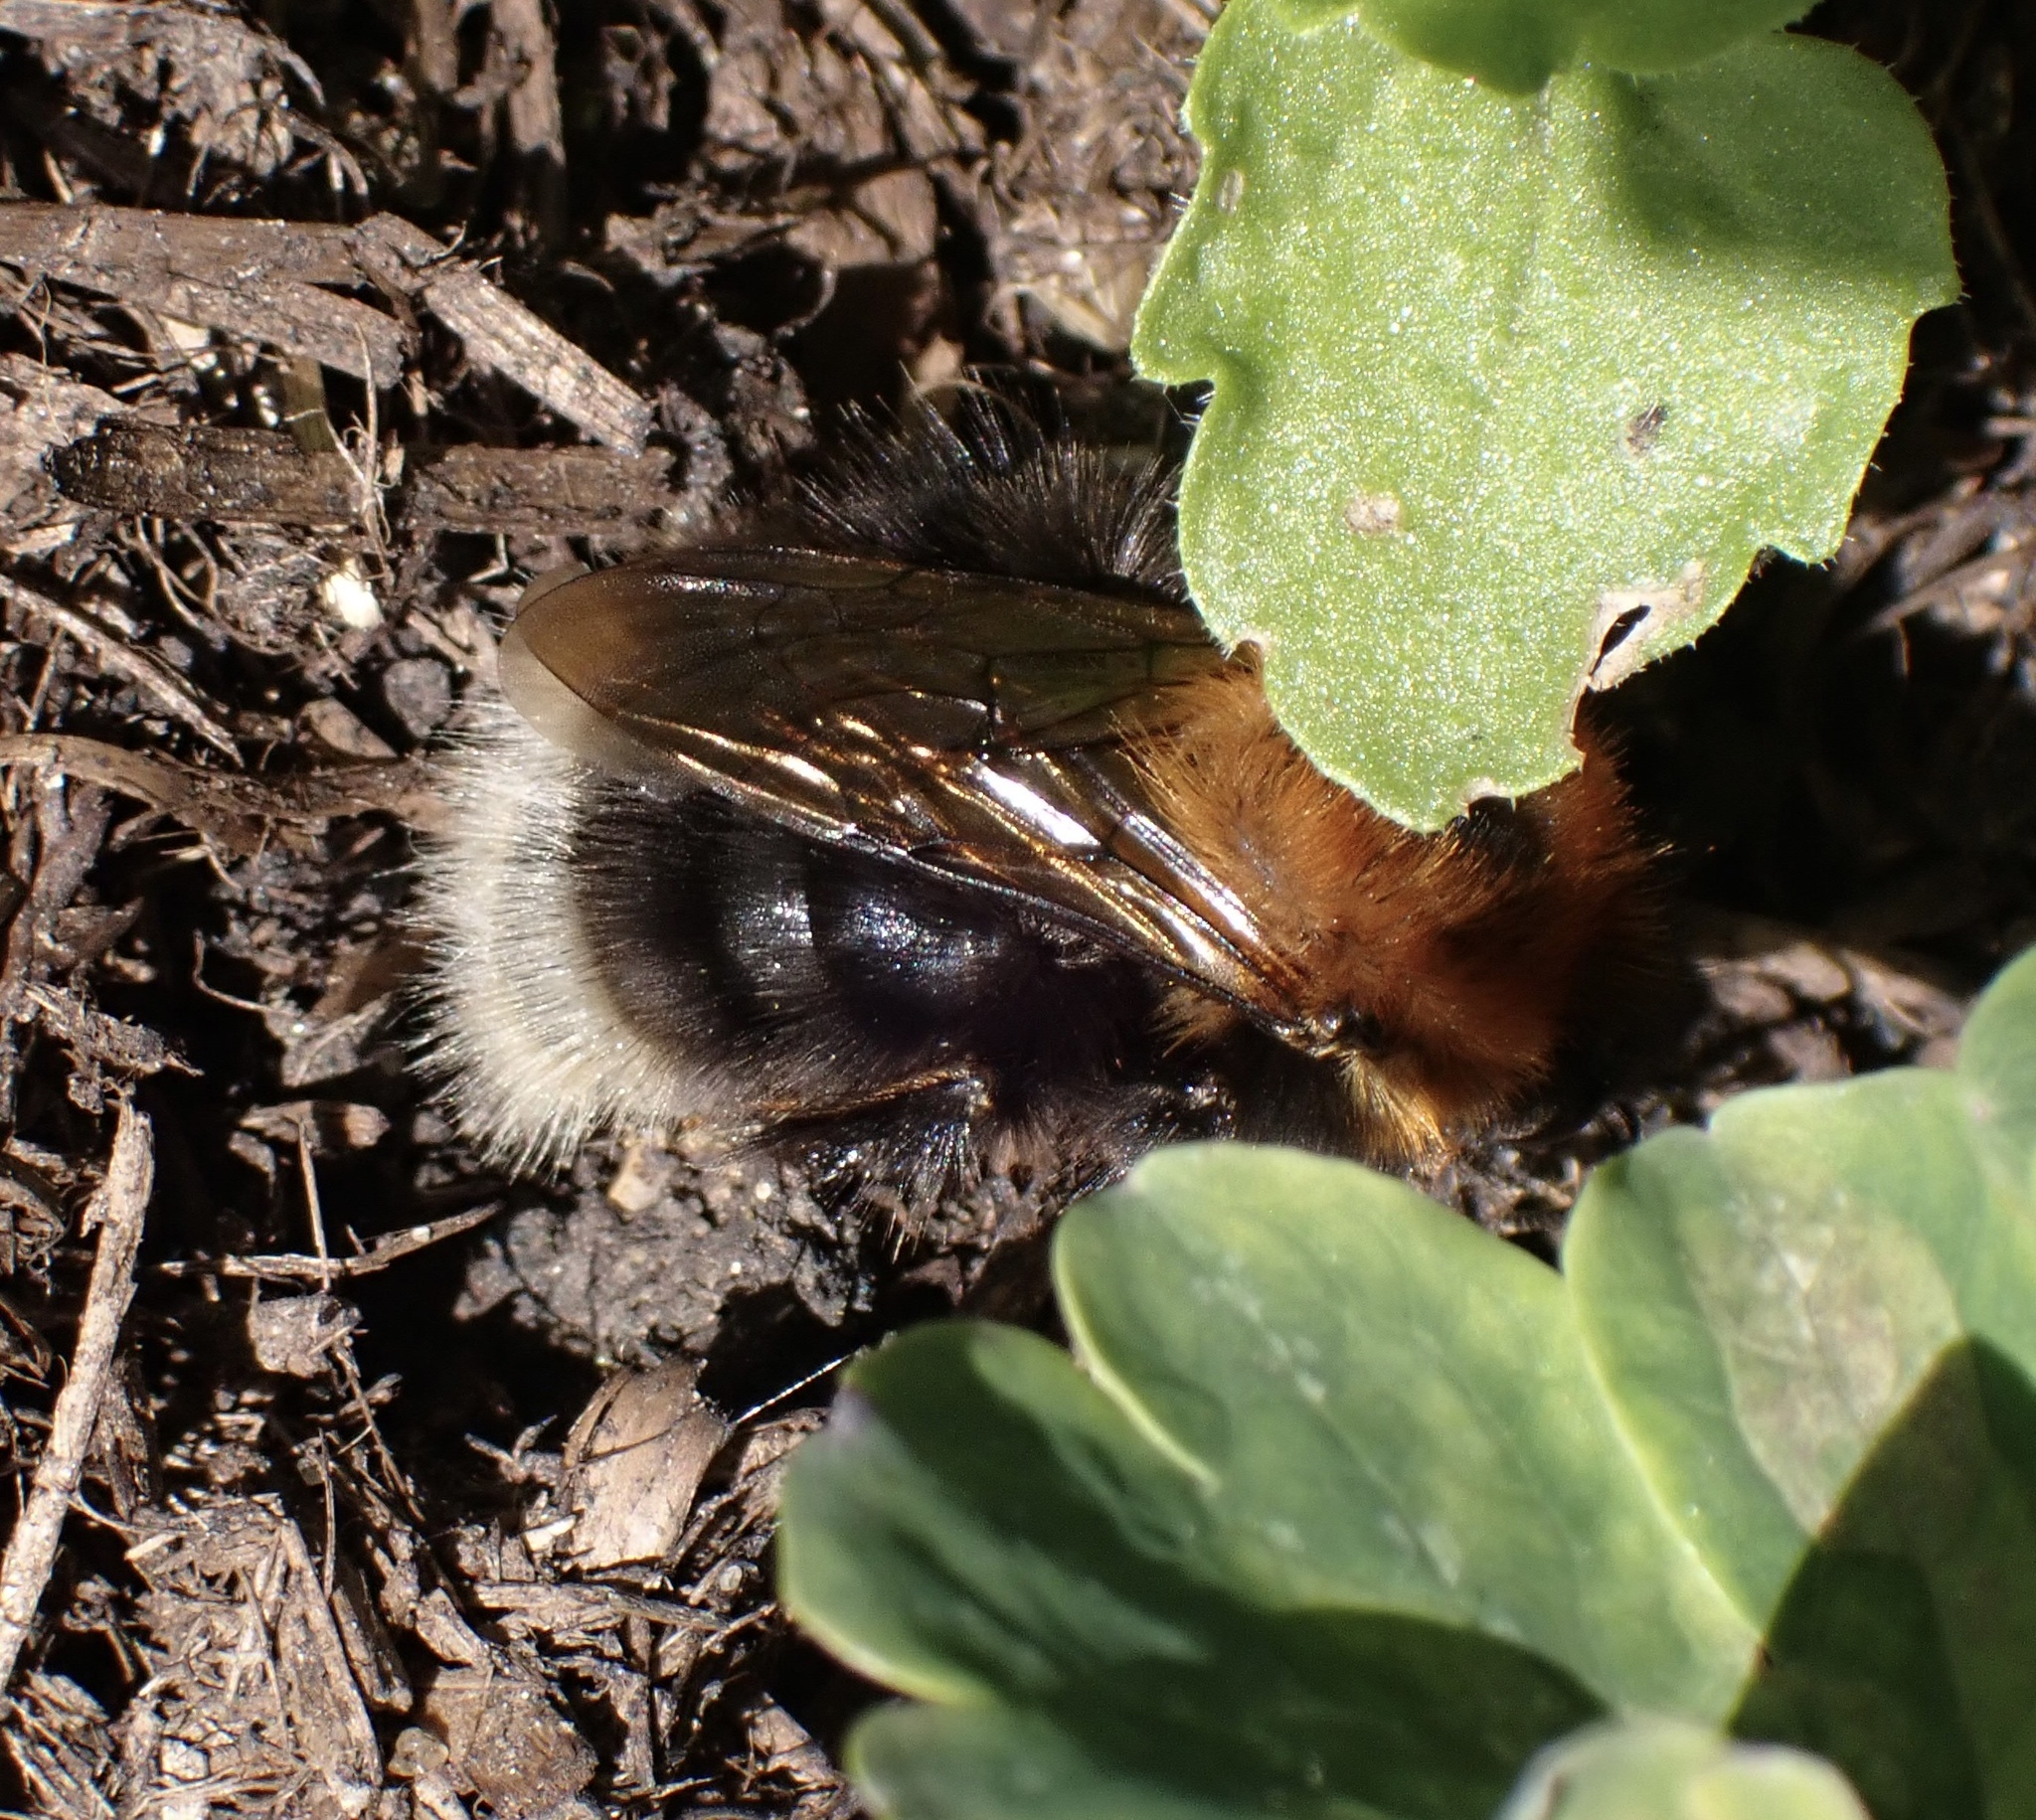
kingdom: Animalia
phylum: Arthropoda
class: Insecta
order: Hymenoptera
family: Apidae
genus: Bombus
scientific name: Bombus hypnorum
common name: New garden bumblebee
